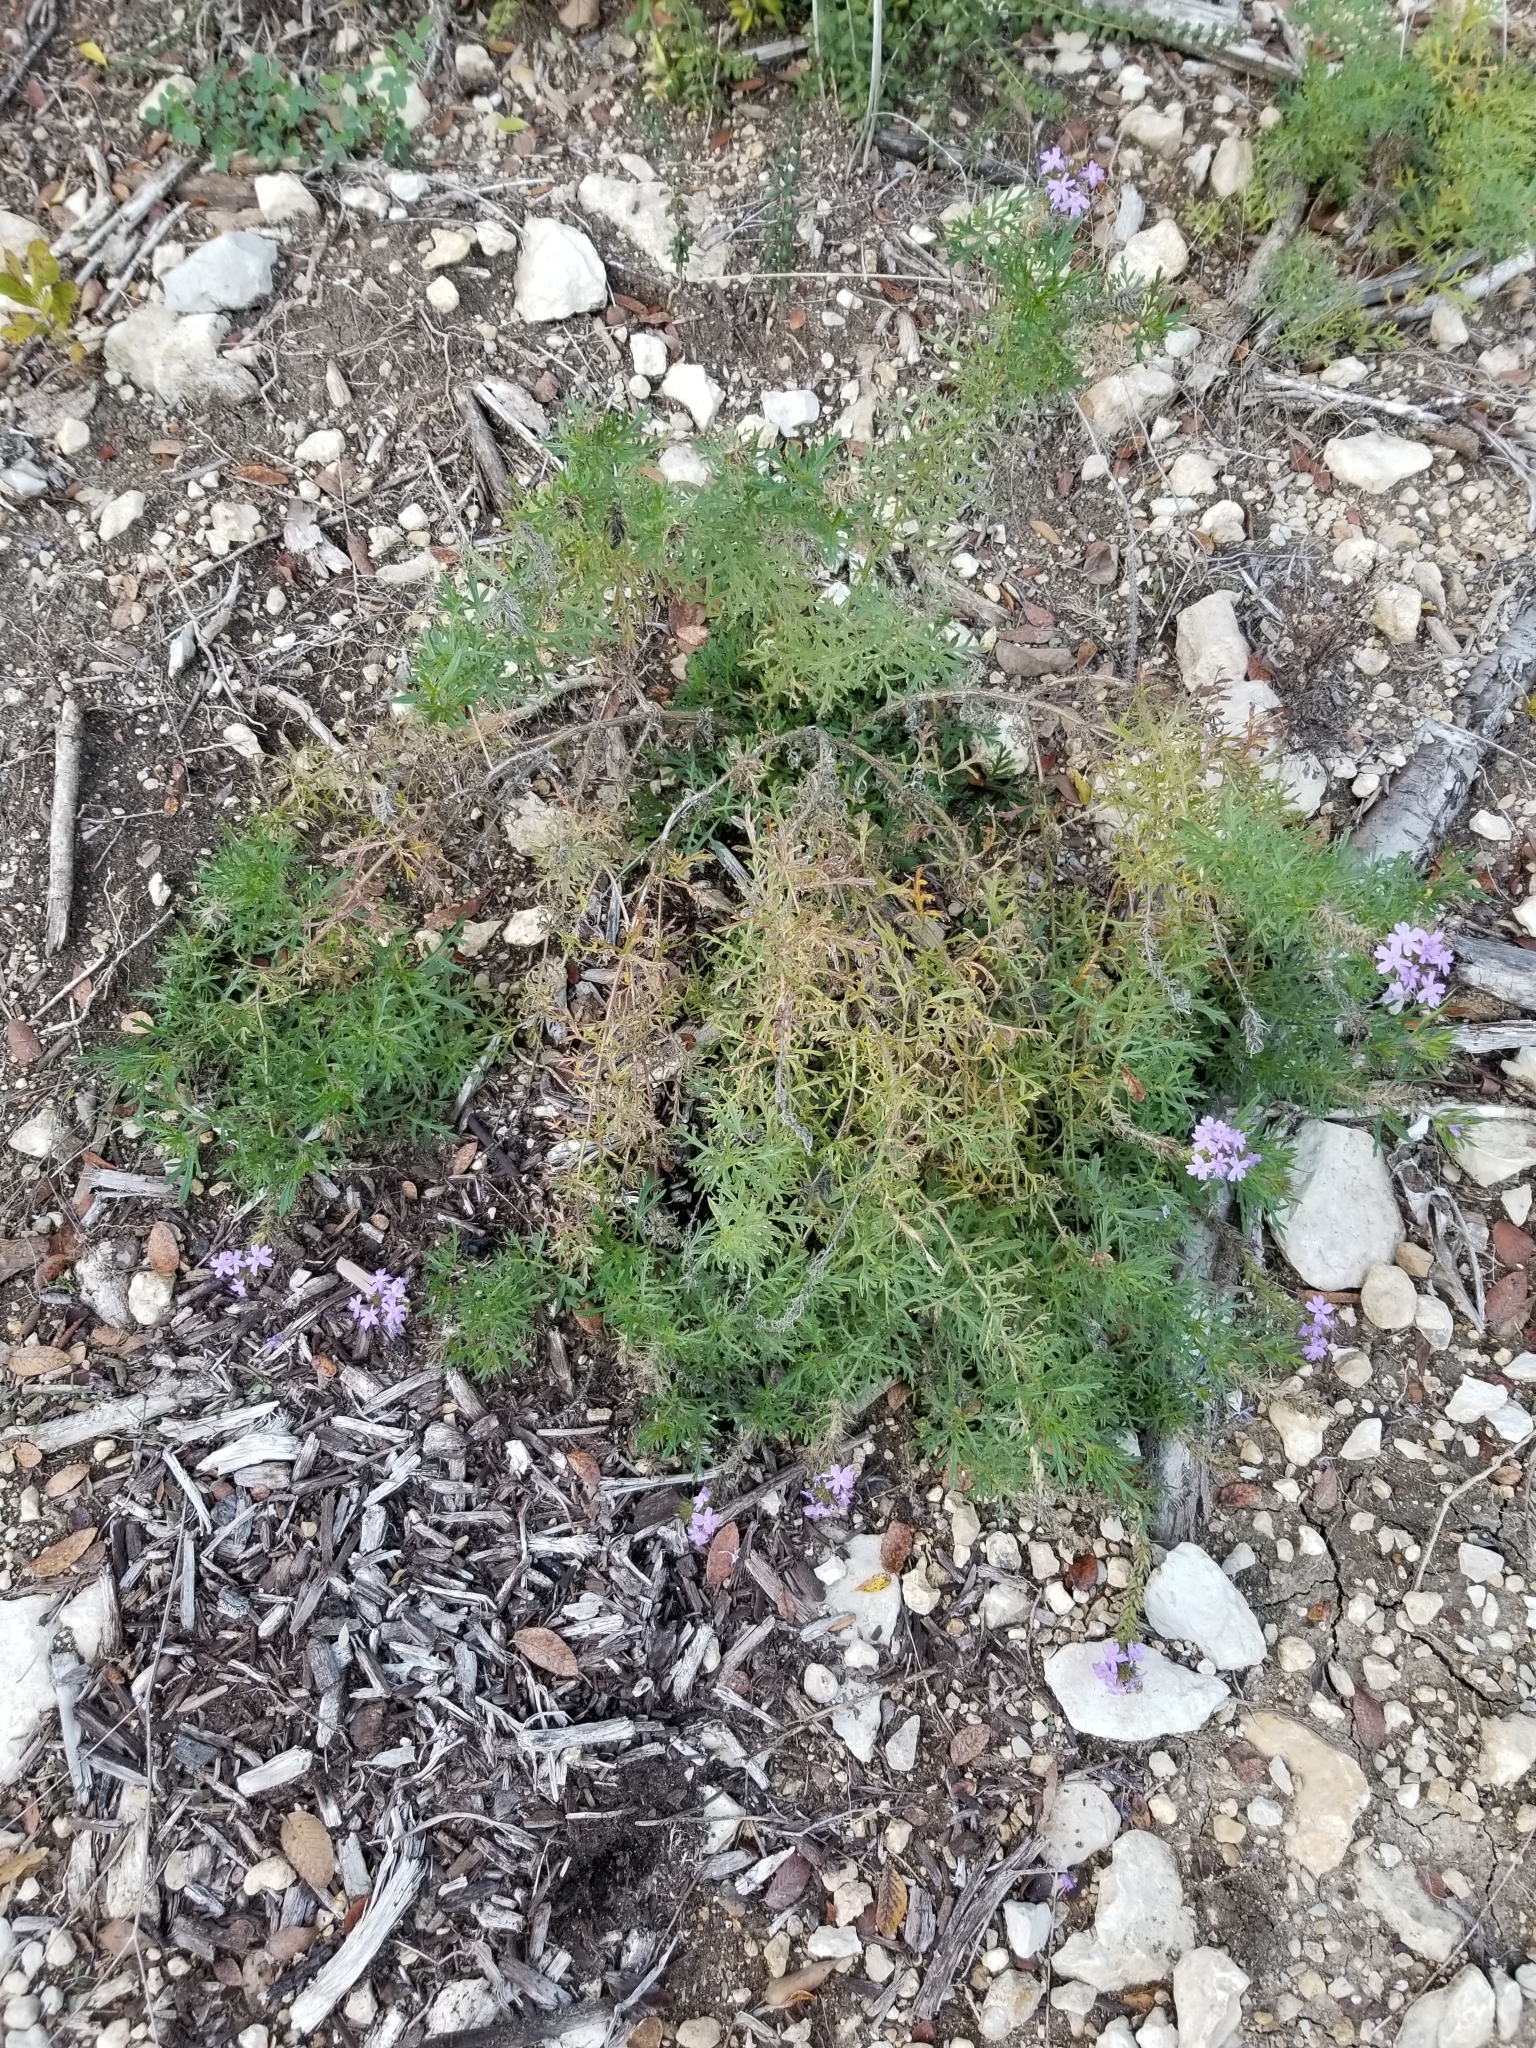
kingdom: Plantae
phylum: Tracheophyta
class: Magnoliopsida
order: Lamiales
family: Verbenaceae
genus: Verbena
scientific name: Verbena bipinnatifida
